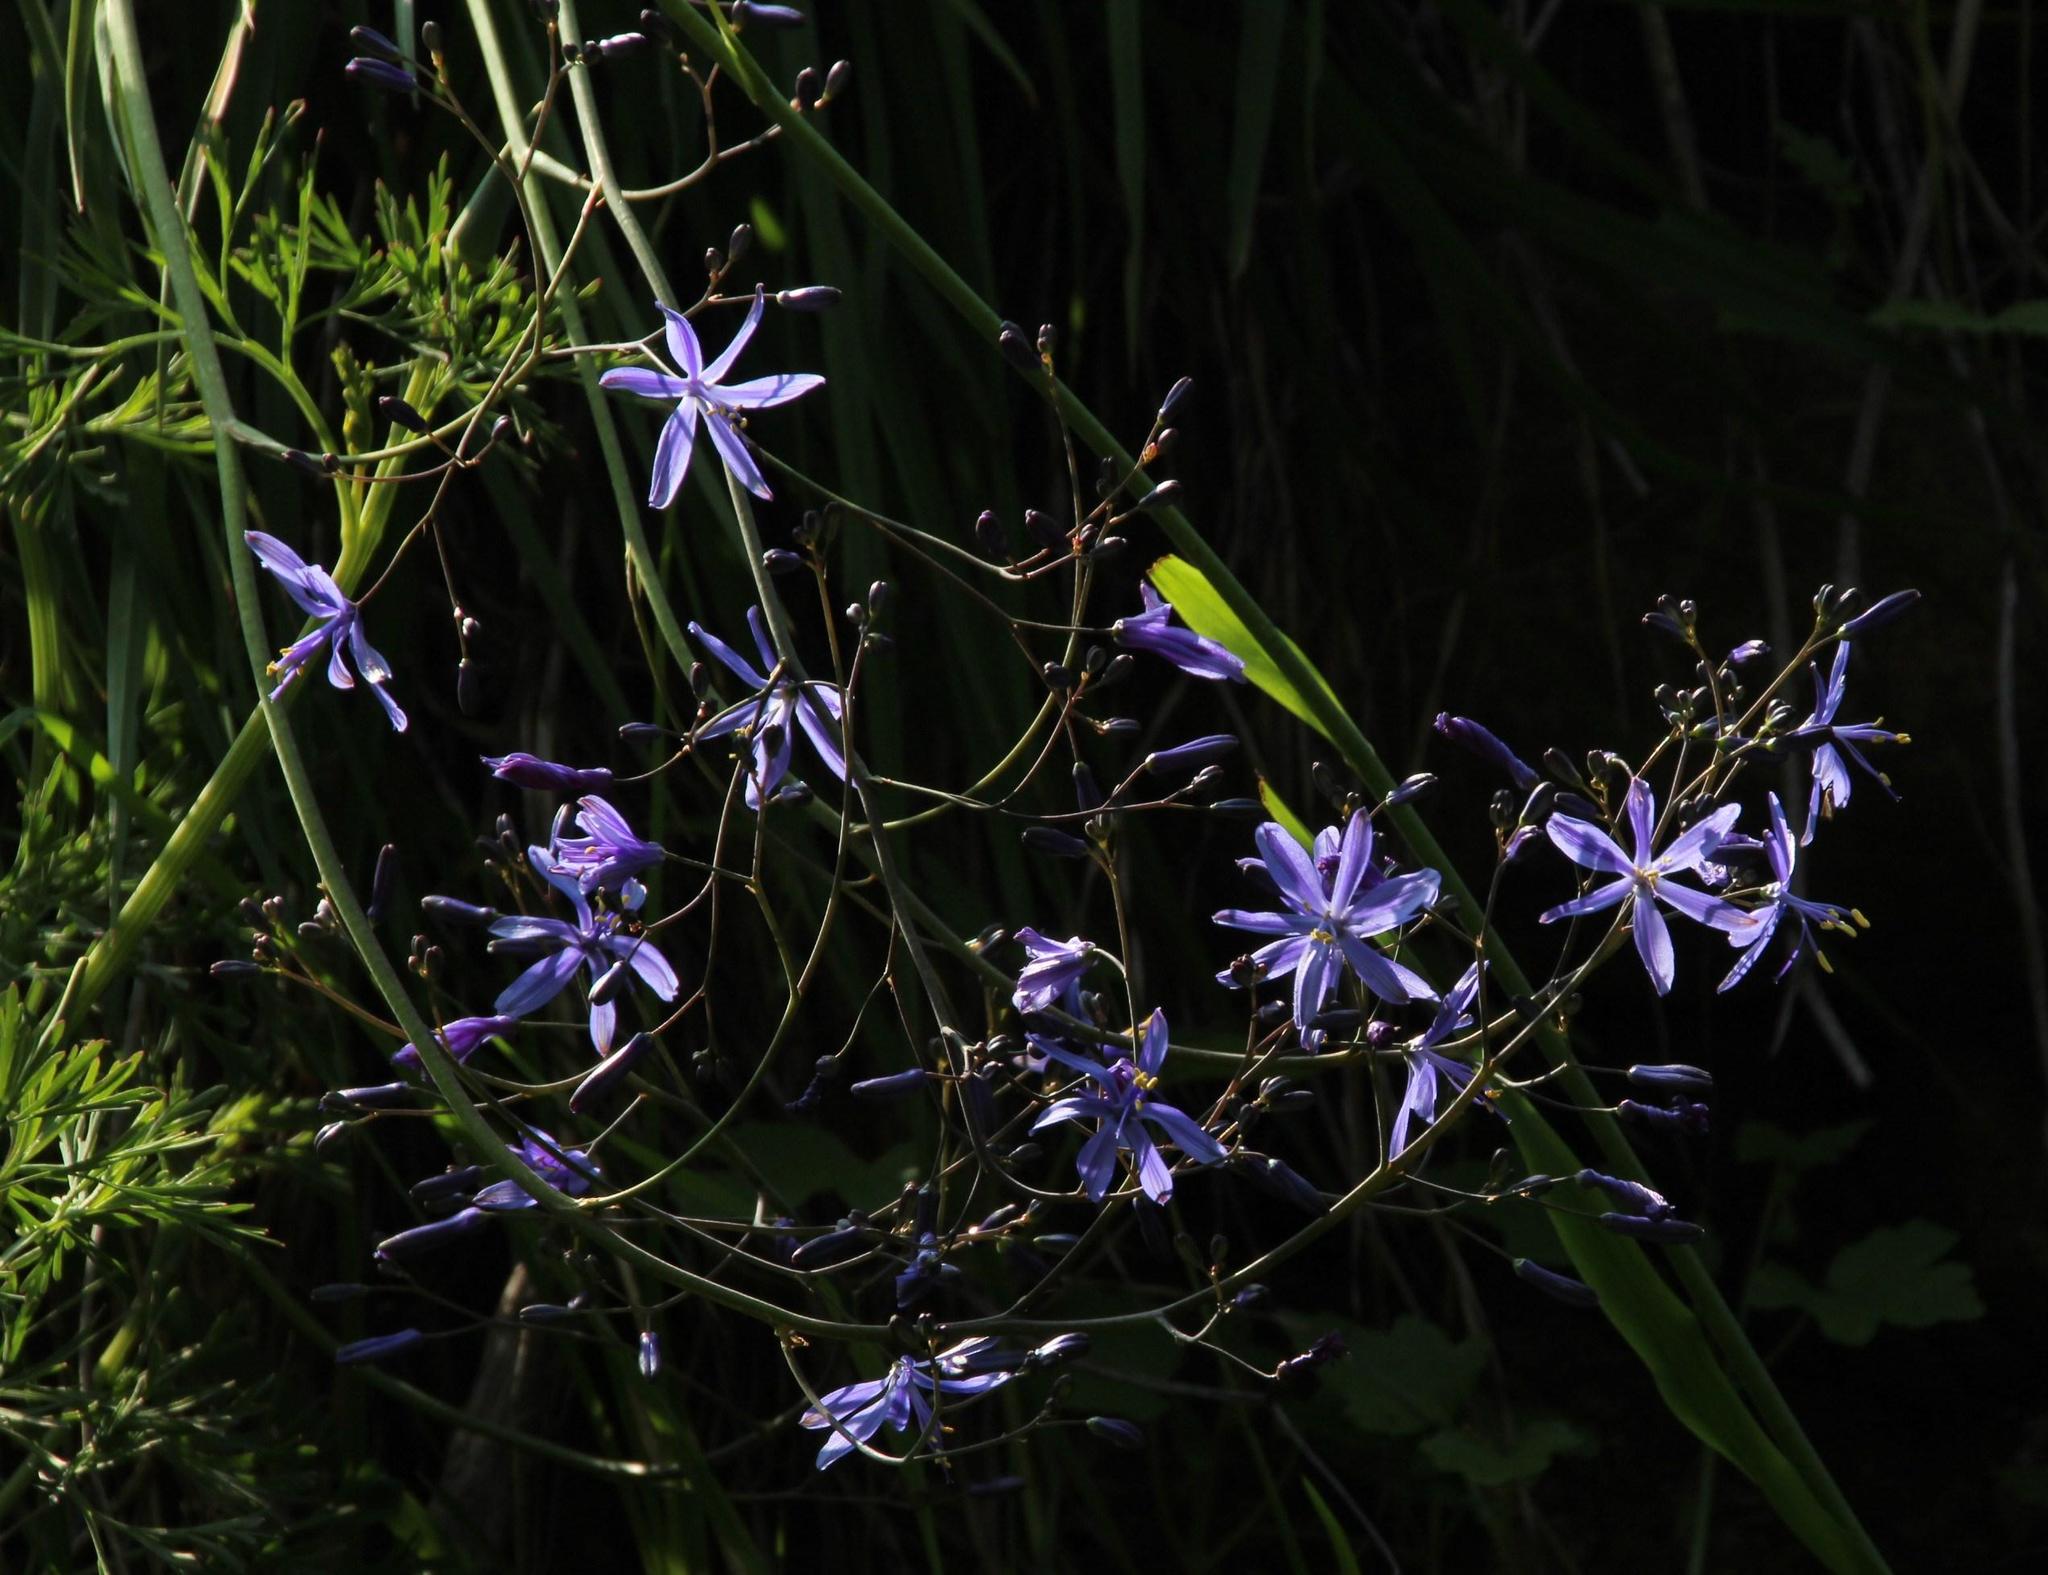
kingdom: Plantae
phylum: Tracheophyta
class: Liliopsida
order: Asparagales
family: Asphodelaceae
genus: Pasithea
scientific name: Pasithea caerulea
